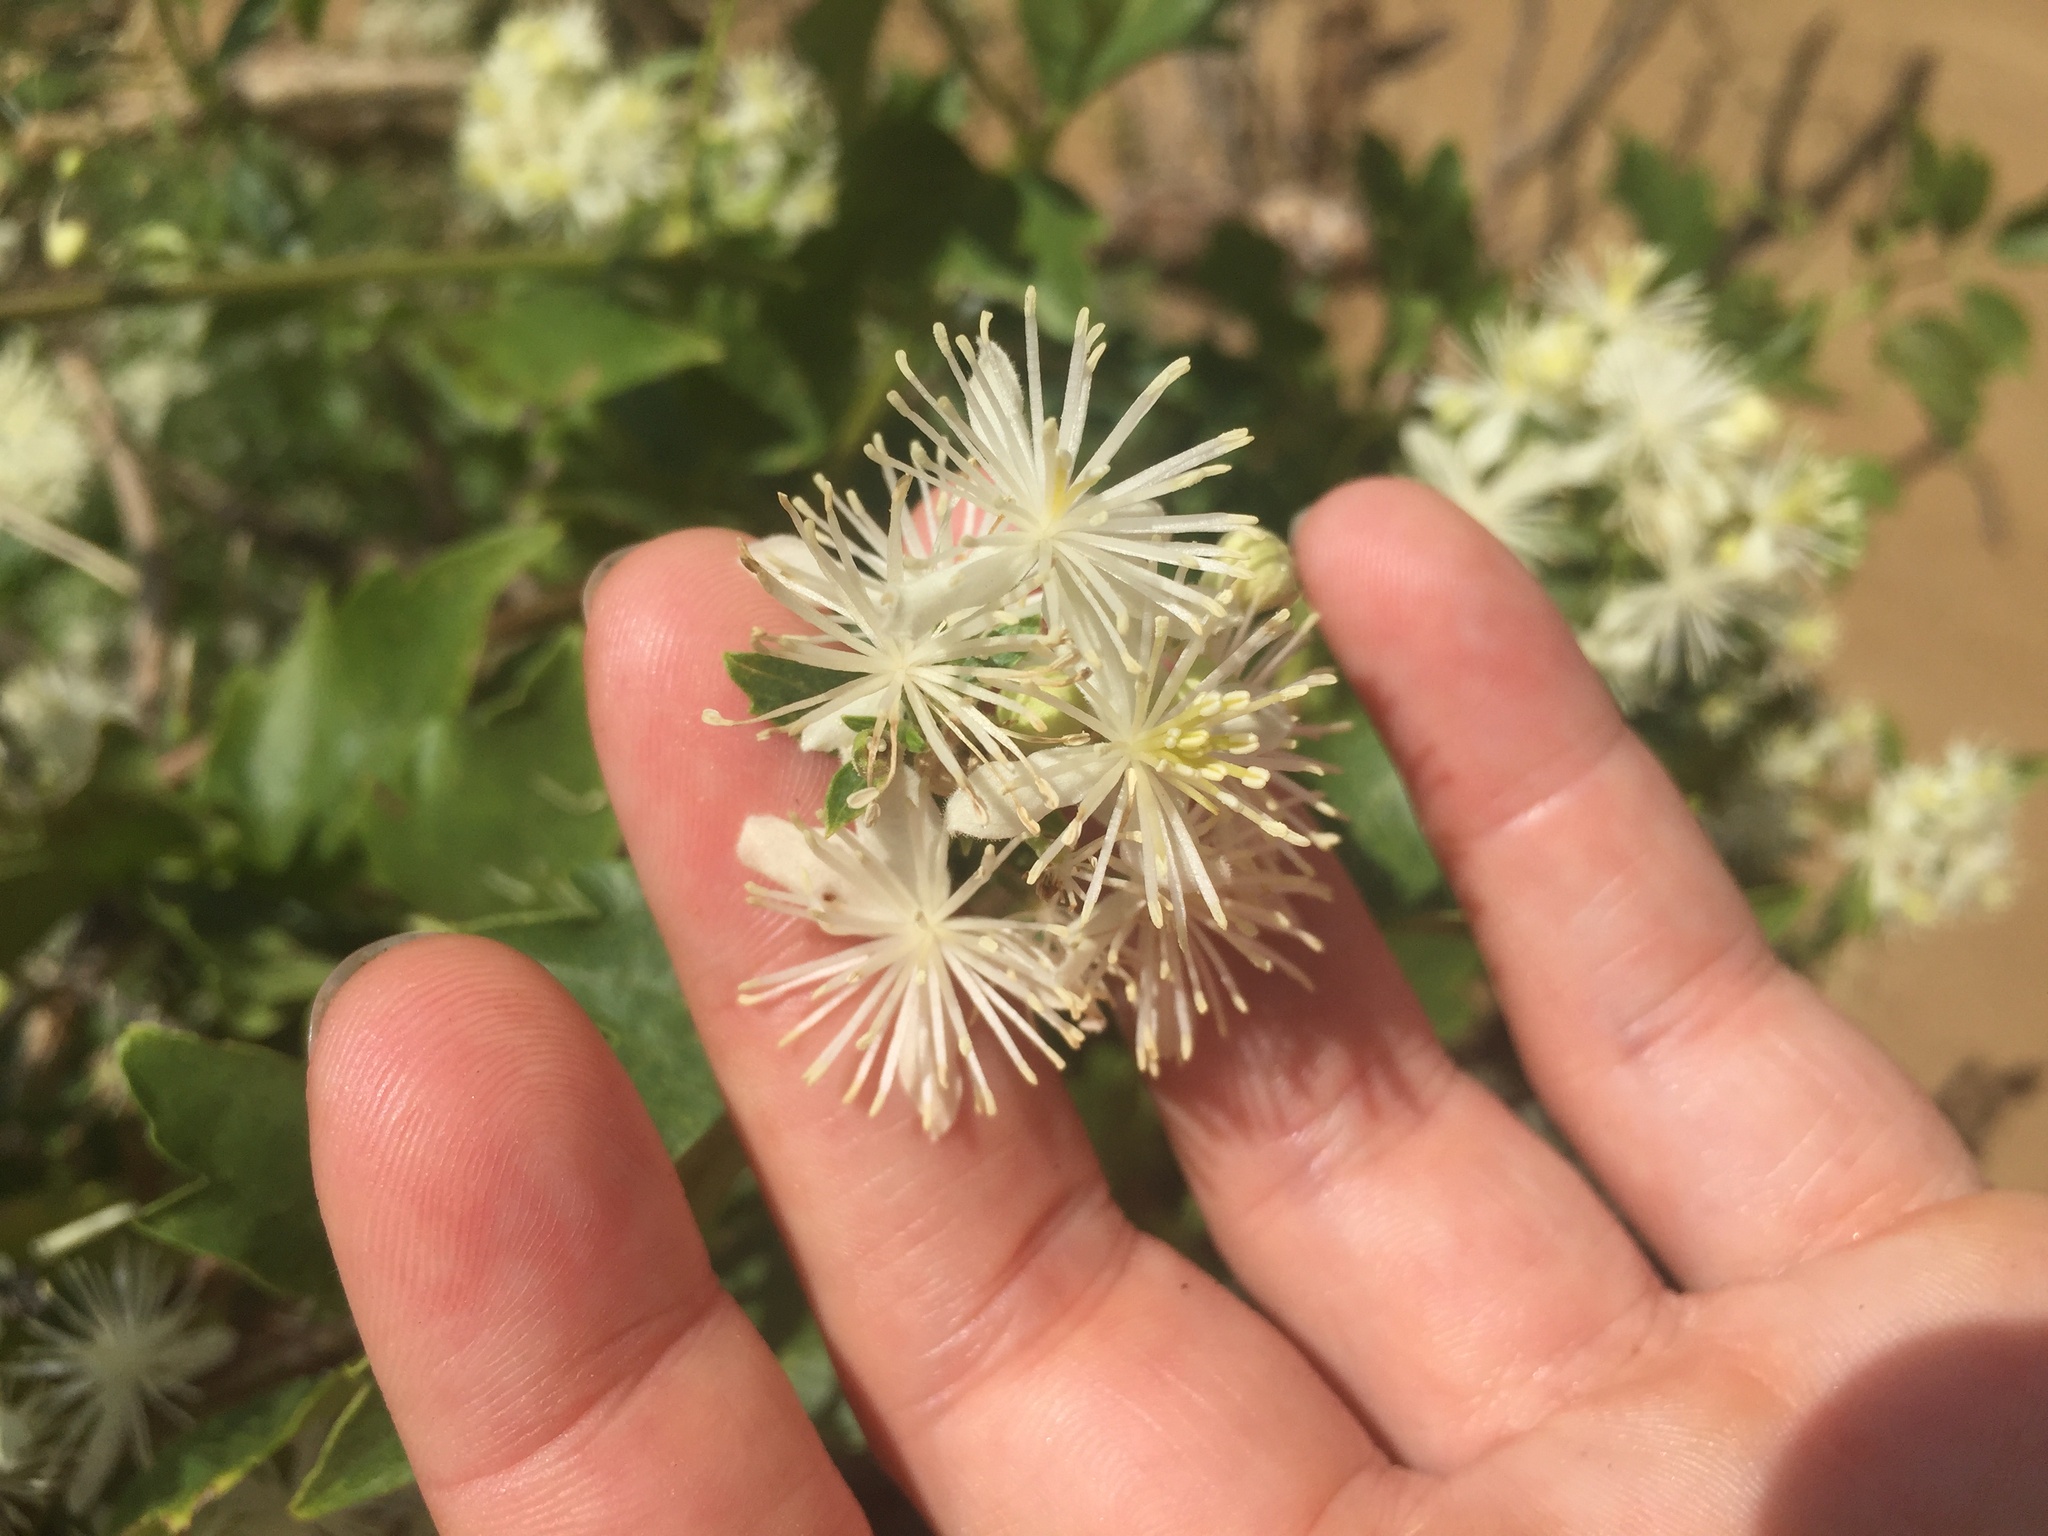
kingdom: Plantae
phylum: Tracheophyta
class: Magnoliopsida
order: Ranunculales
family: Ranunculaceae
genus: Clematis
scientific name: Clematis ligusticifolia
